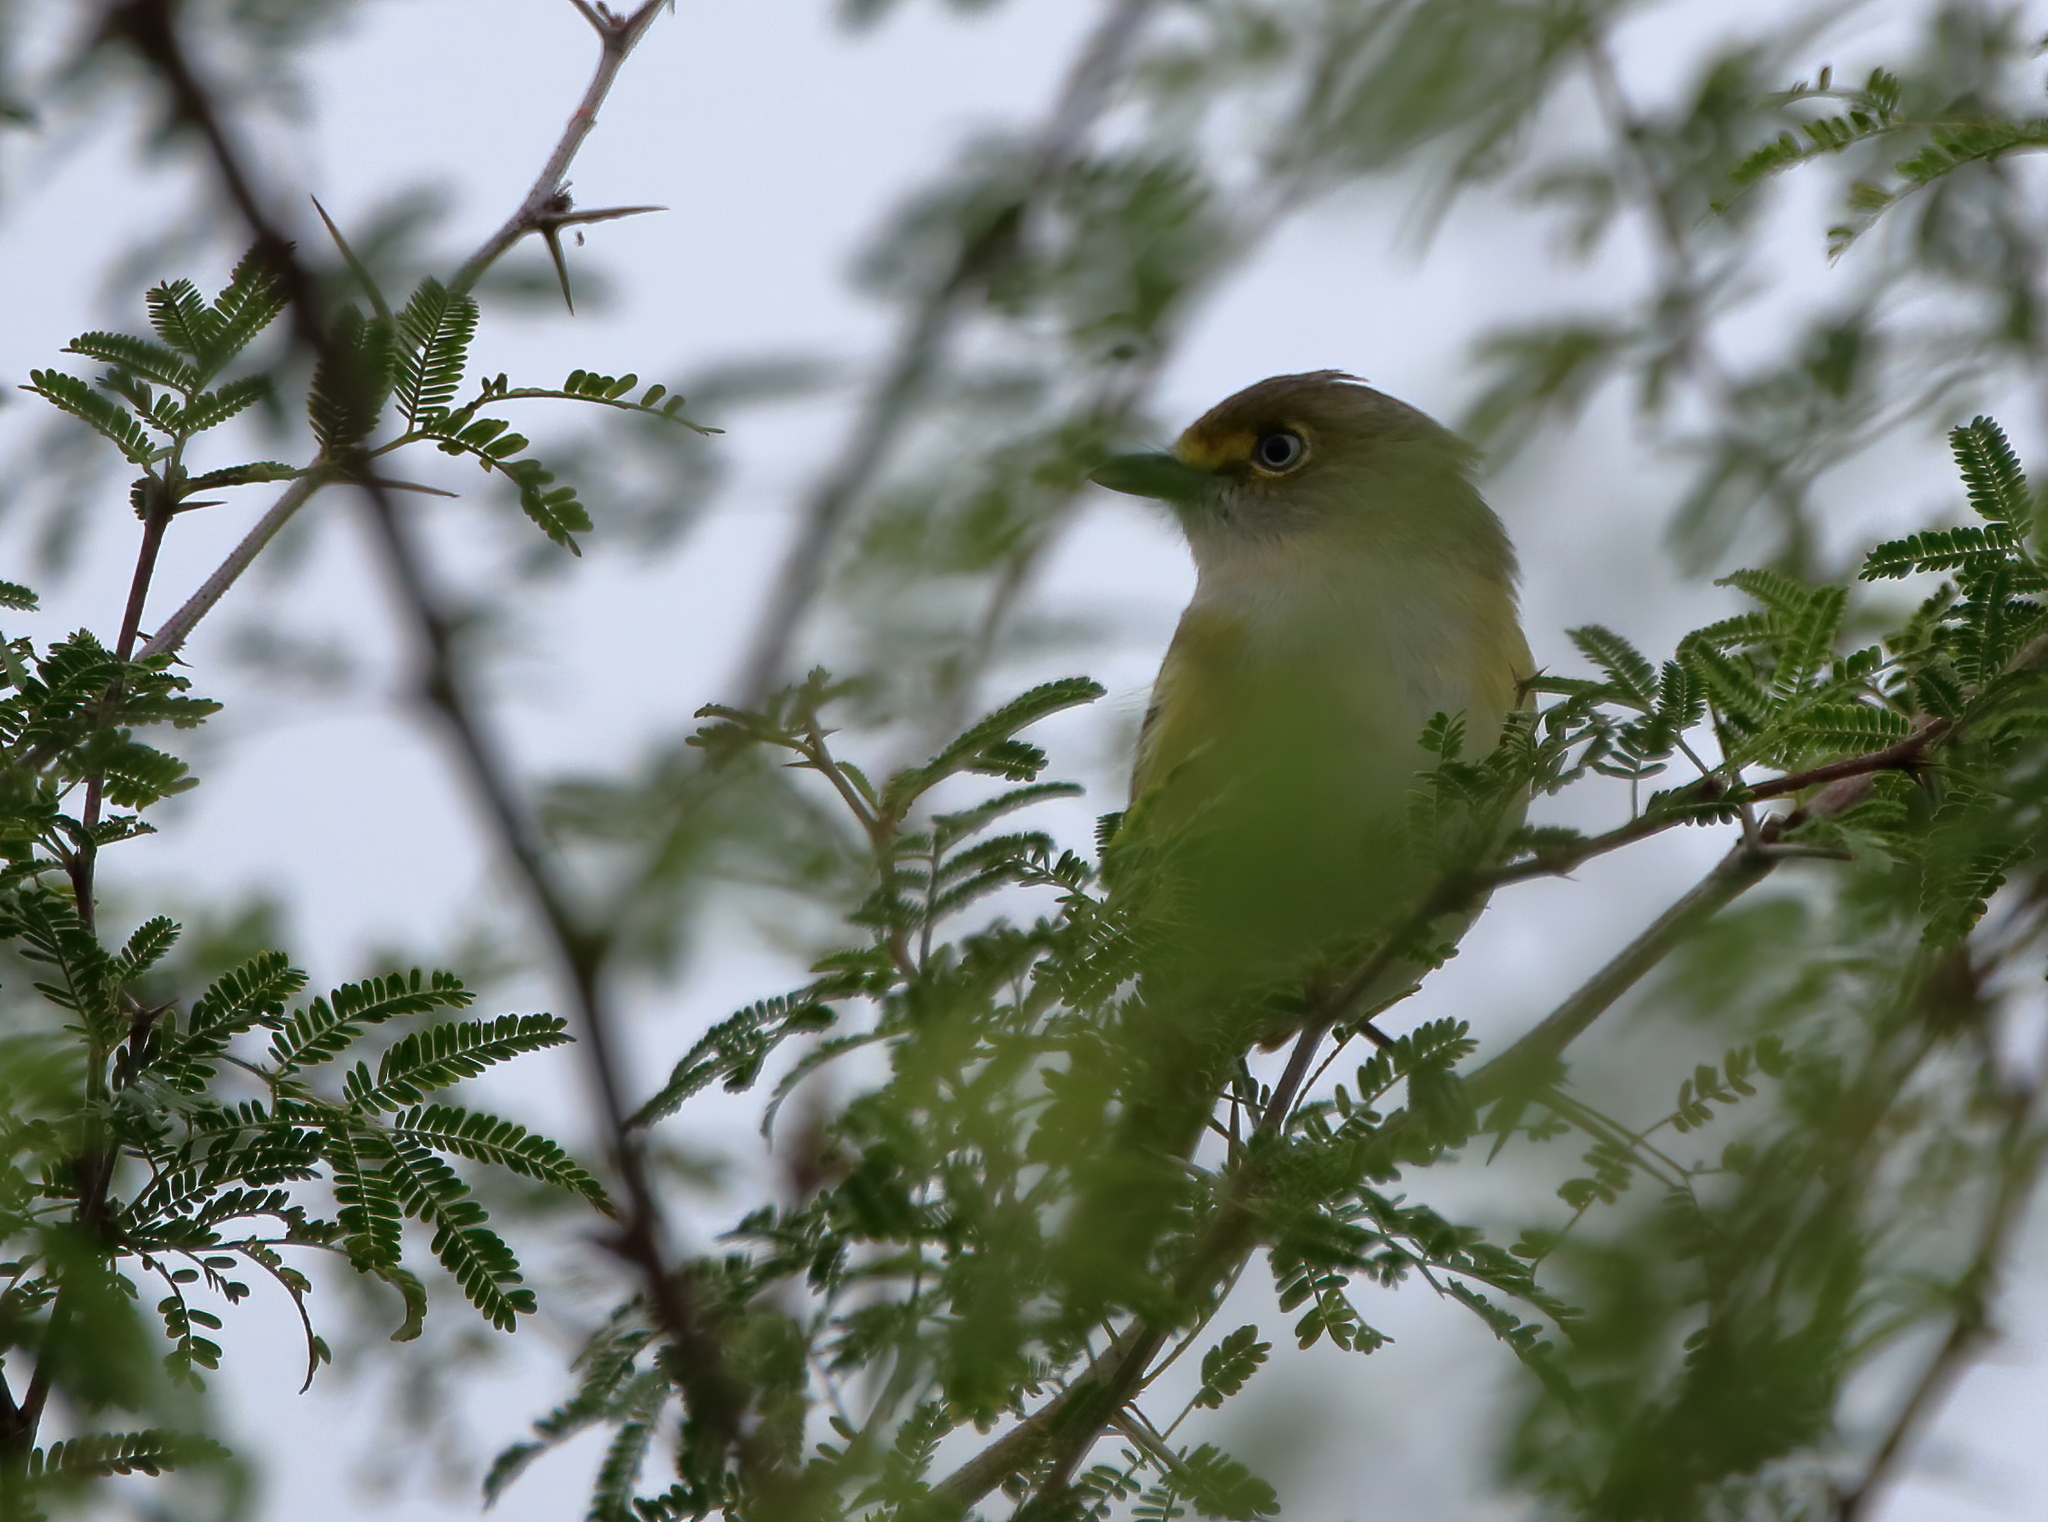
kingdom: Animalia
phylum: Chordata
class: Aves
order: Passeriformes
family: Vireonidae
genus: Vireo
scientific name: Vireo griseus
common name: White-eyed vireo
